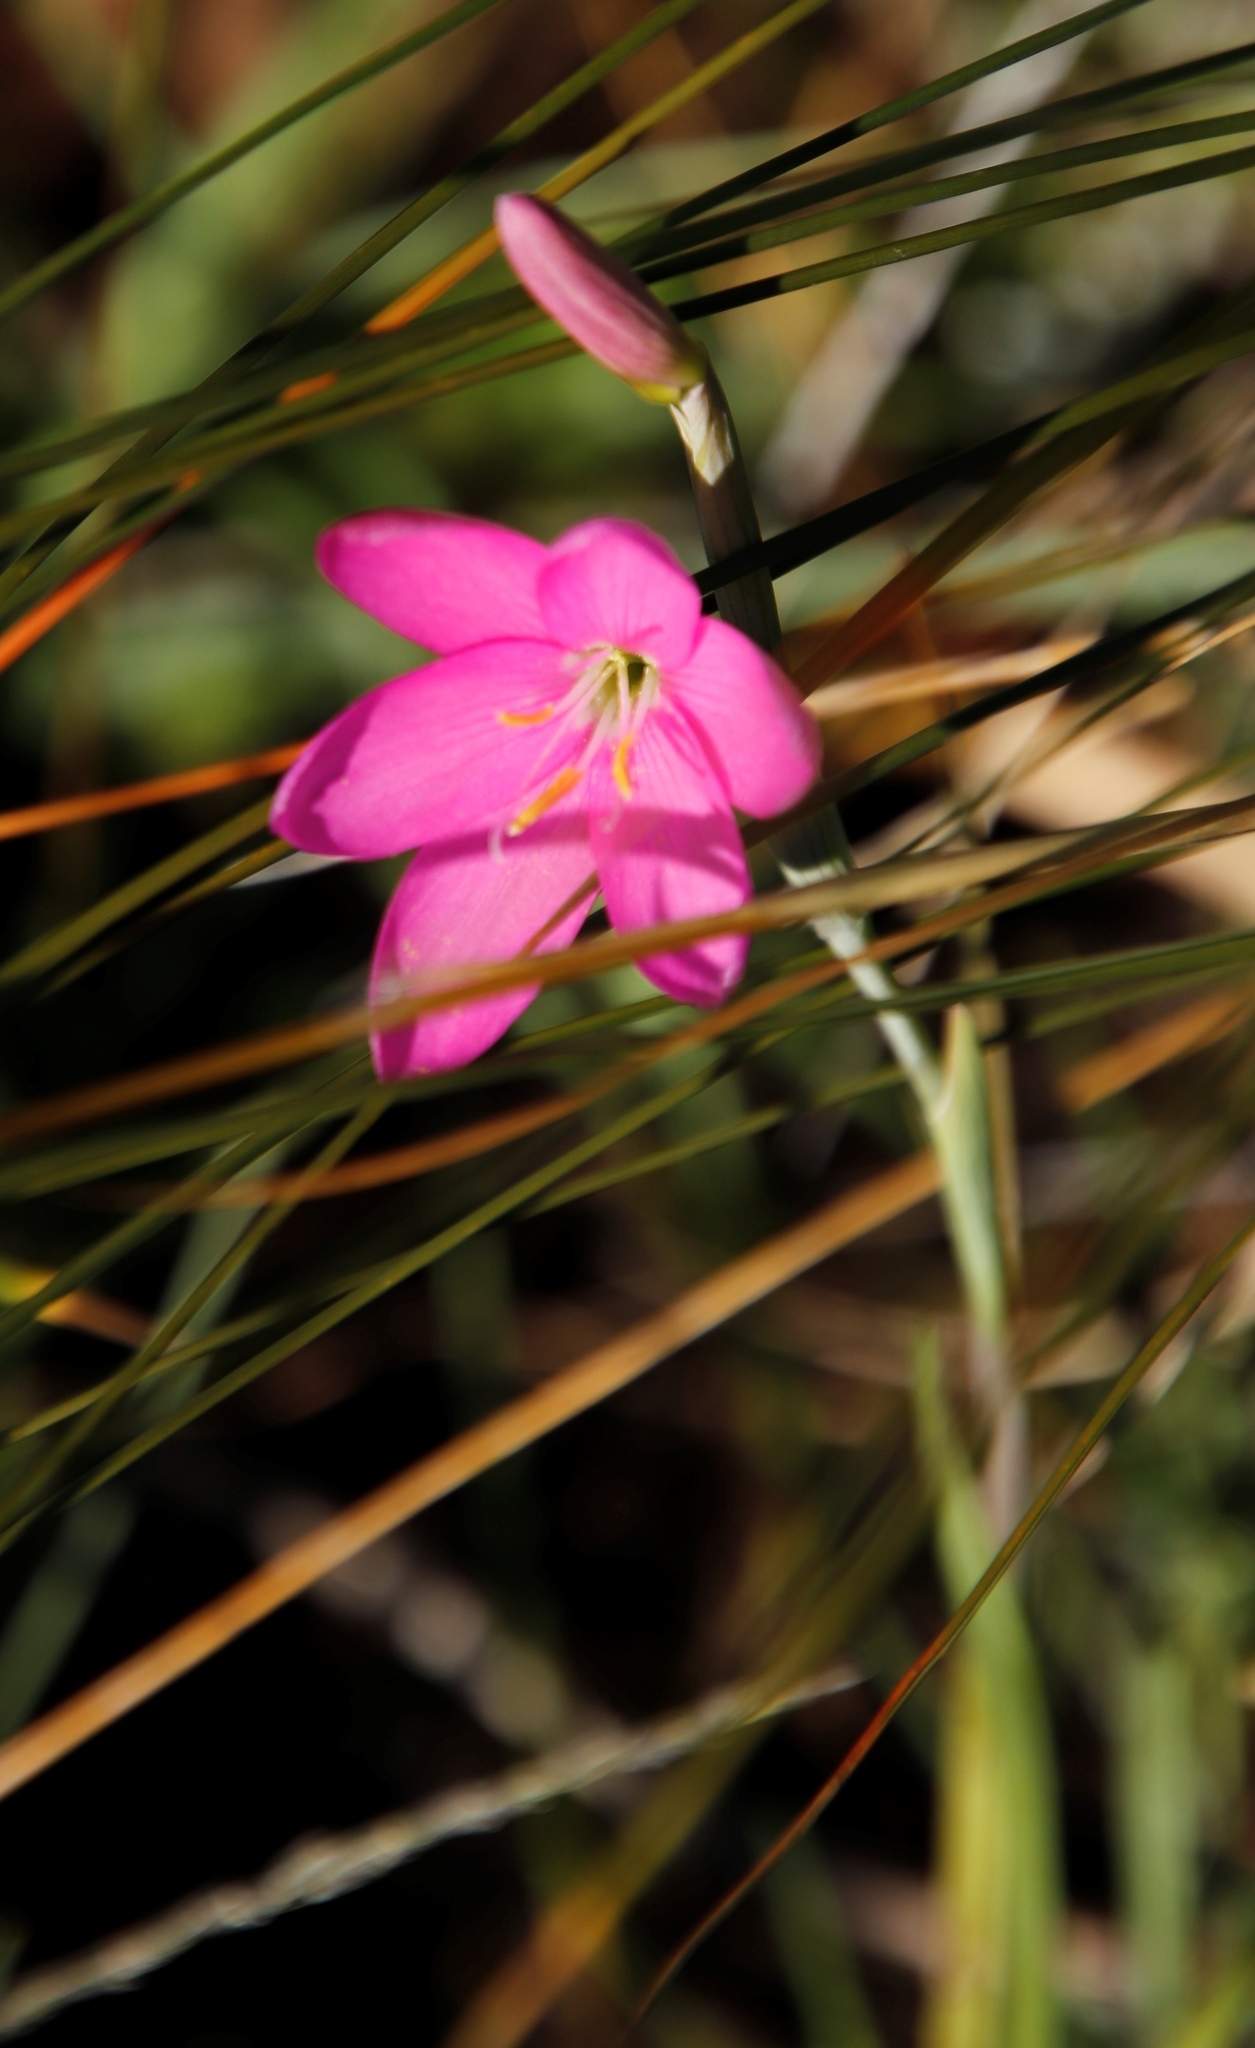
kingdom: Plantae
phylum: Tracheophyta
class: Liliopsida
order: Asparagales
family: Iridaceae
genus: Hesperantha
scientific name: Hesperantha woodii
